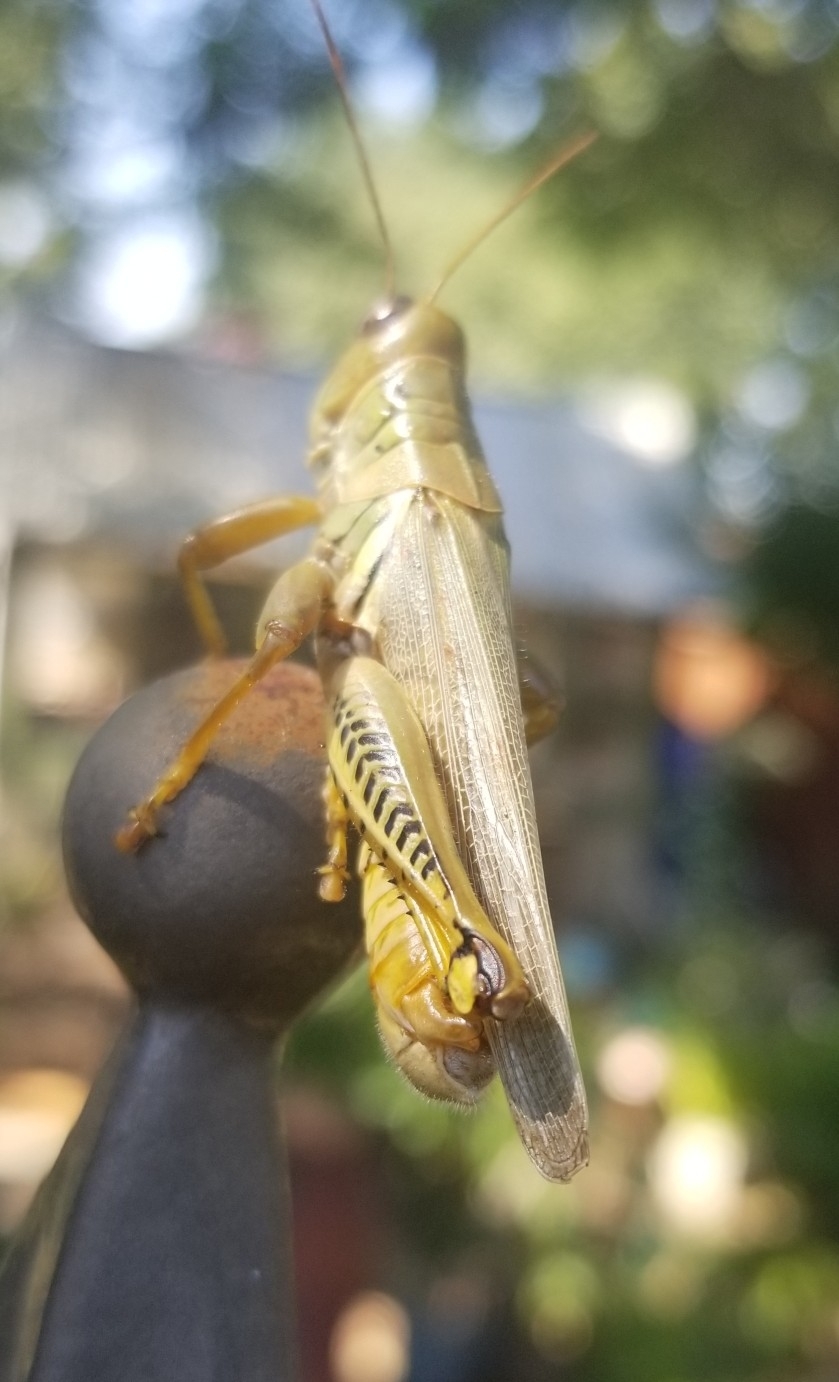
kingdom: Animalia
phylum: Arthropoda
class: Insecta
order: Orthoptera
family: Acrididae
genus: Melanoplus
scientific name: Melanoplus differentialis
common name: Differential grasshopper
